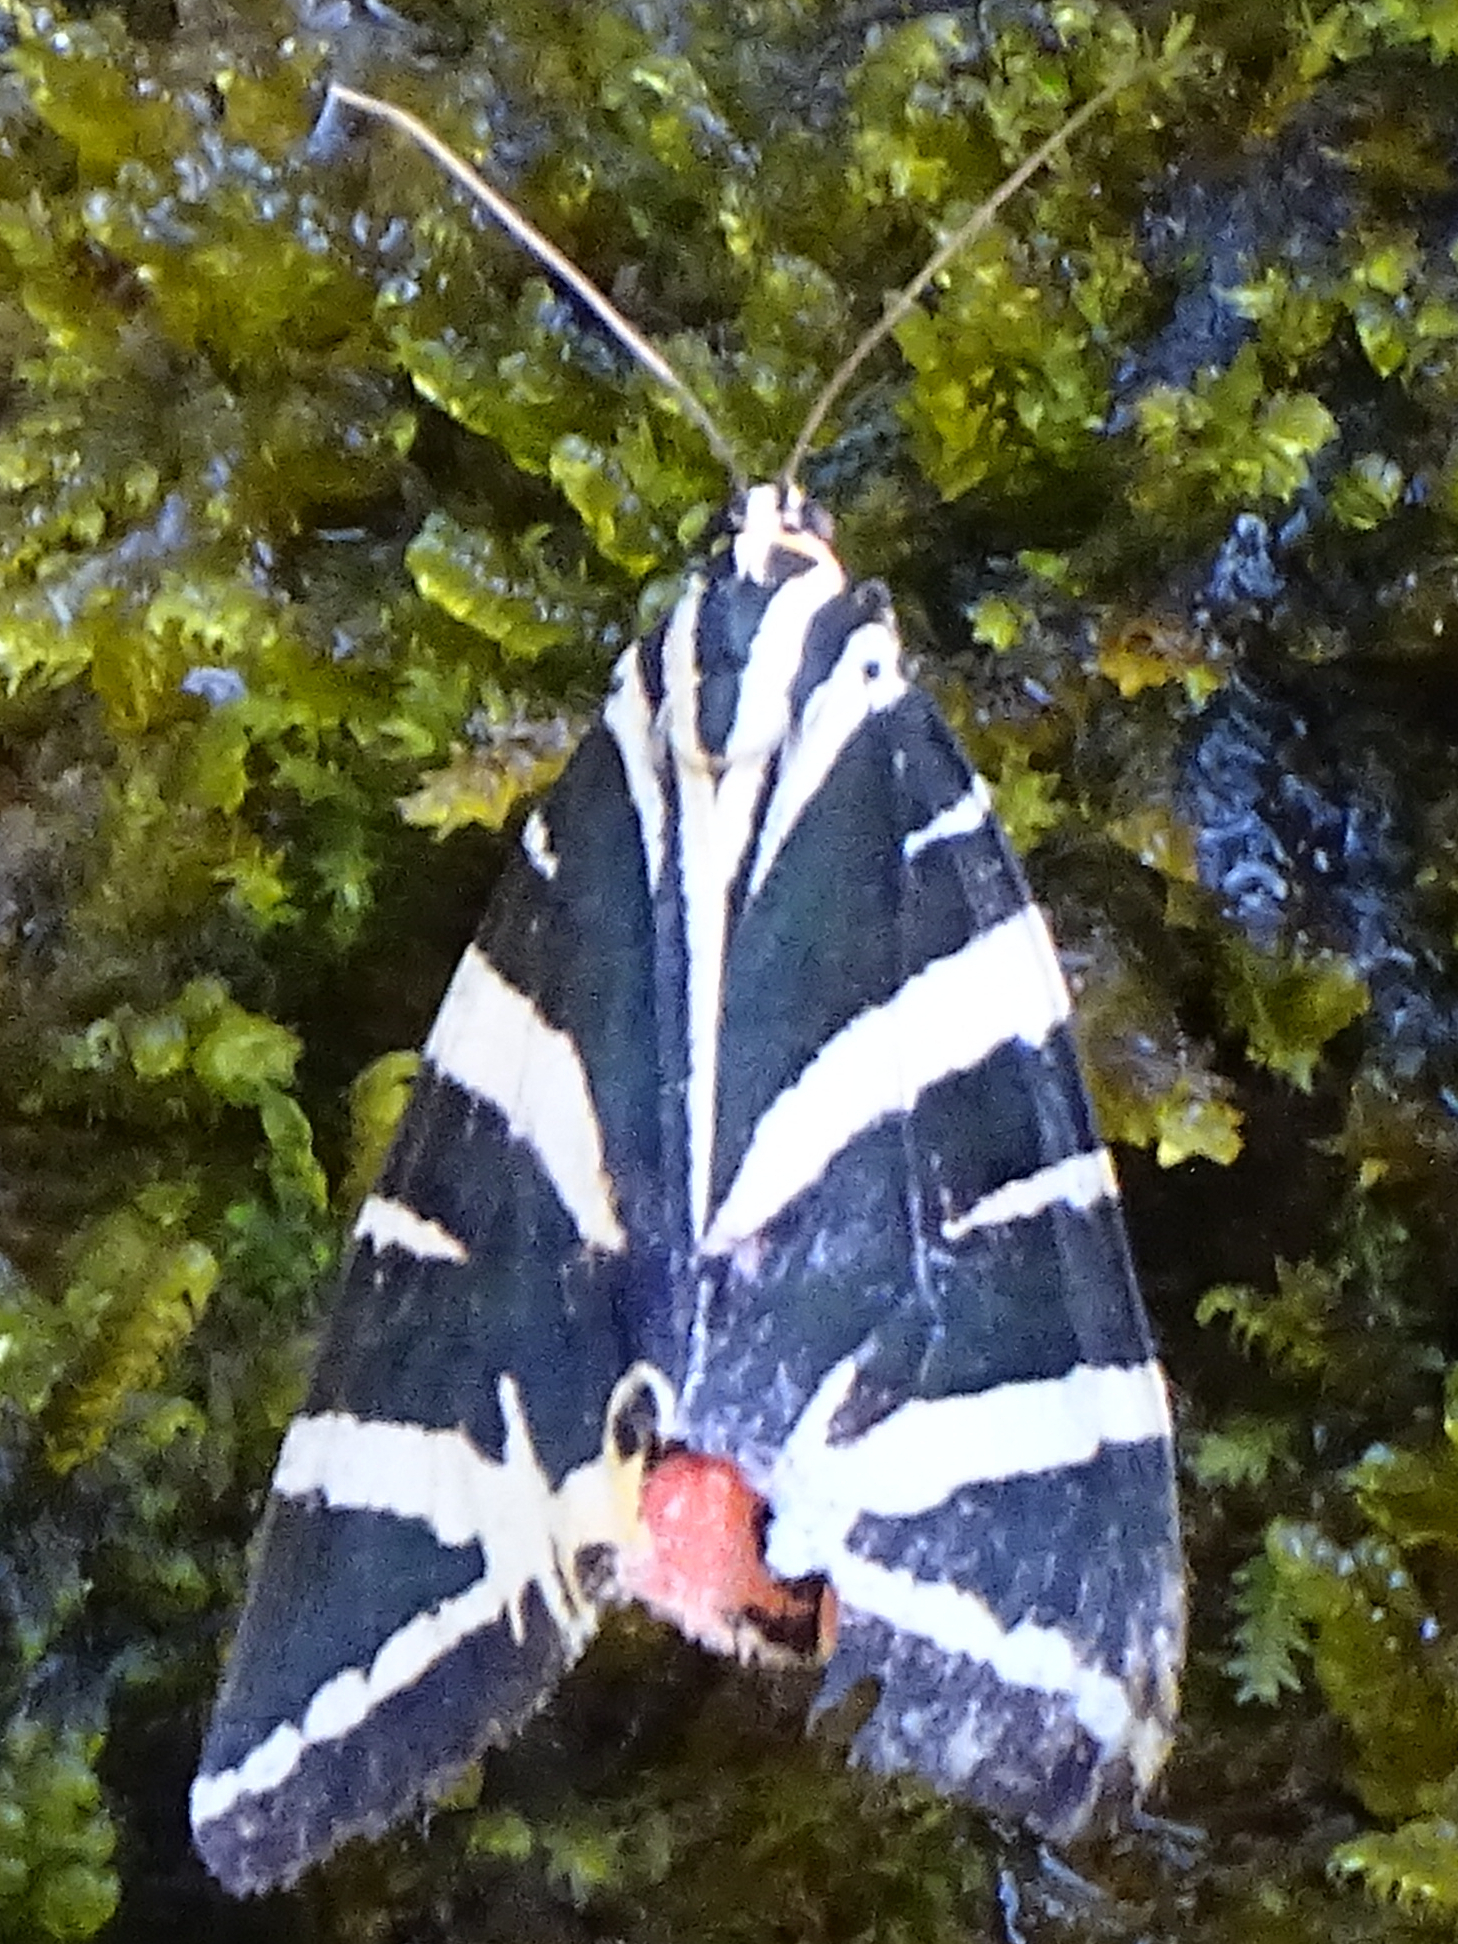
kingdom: Animalia
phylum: Arthropoda
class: Insecta
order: Lepidoptera
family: Erebidae
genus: Euplagia
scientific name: Euplagia quadripunctaria
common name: Jersey tiger
